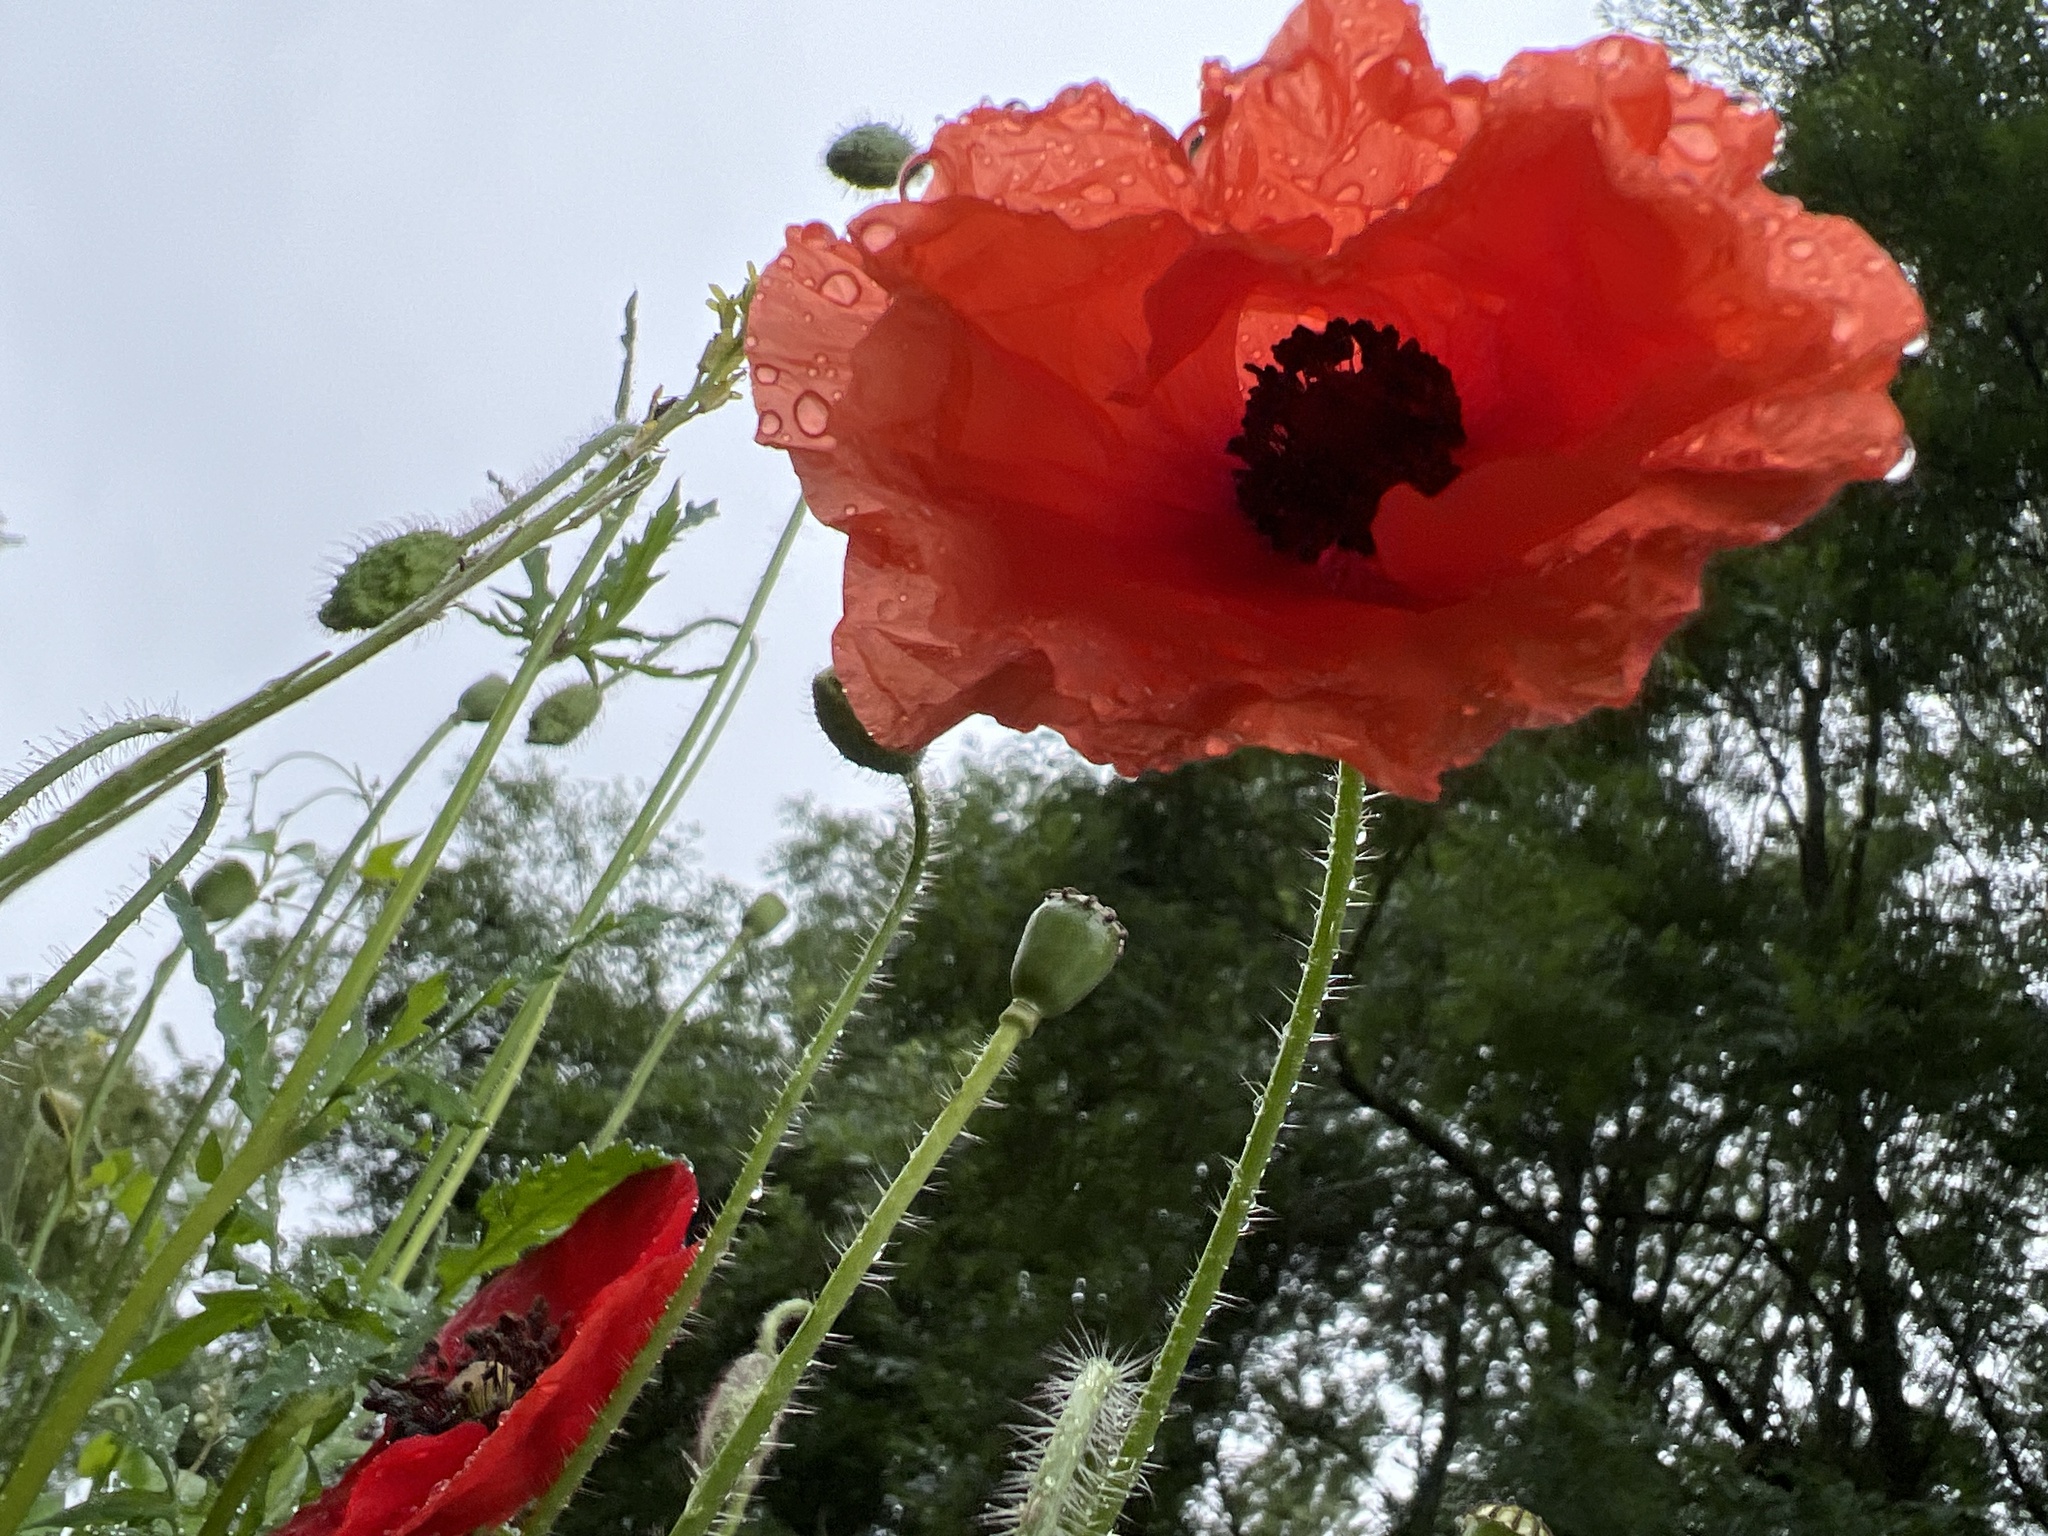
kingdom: Plantae
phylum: Tracheophyta
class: Magnoliopsida
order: Ranunculales
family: Papaveraceae
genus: Papaver
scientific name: Papaver rhoeas
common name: Corn poppy
